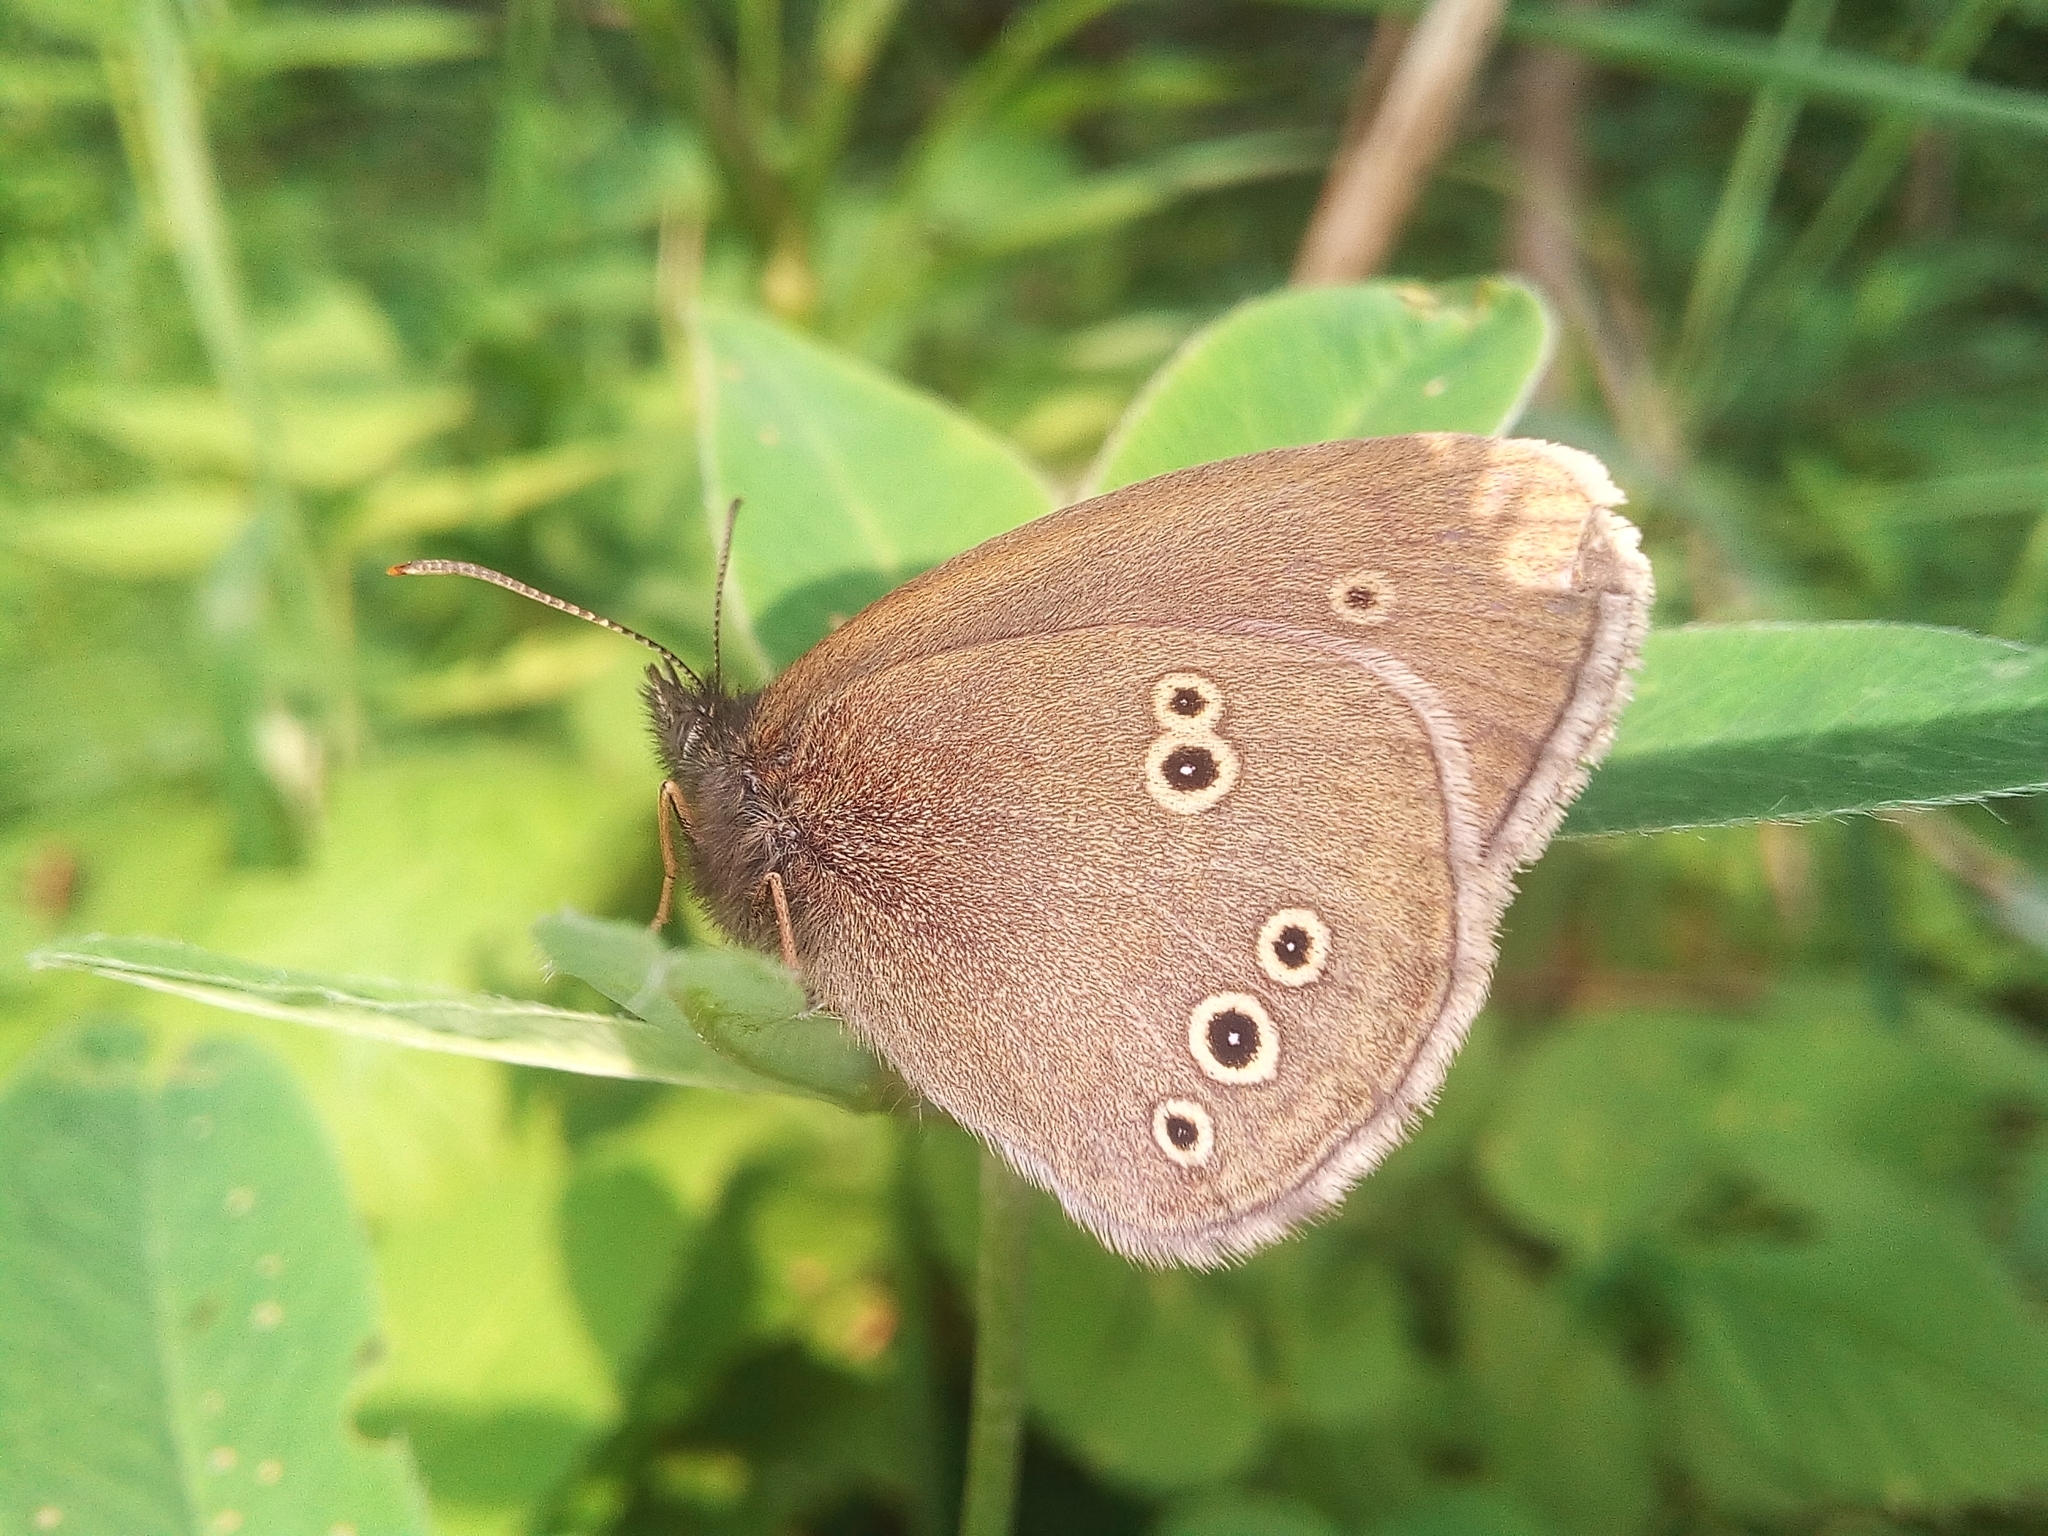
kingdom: Animalia
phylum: Arthropoda
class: Insecta
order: Lepidoptera
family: Nymphalidae
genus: Aphantopus
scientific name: Aphantopus hyperantus
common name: Ringlet
